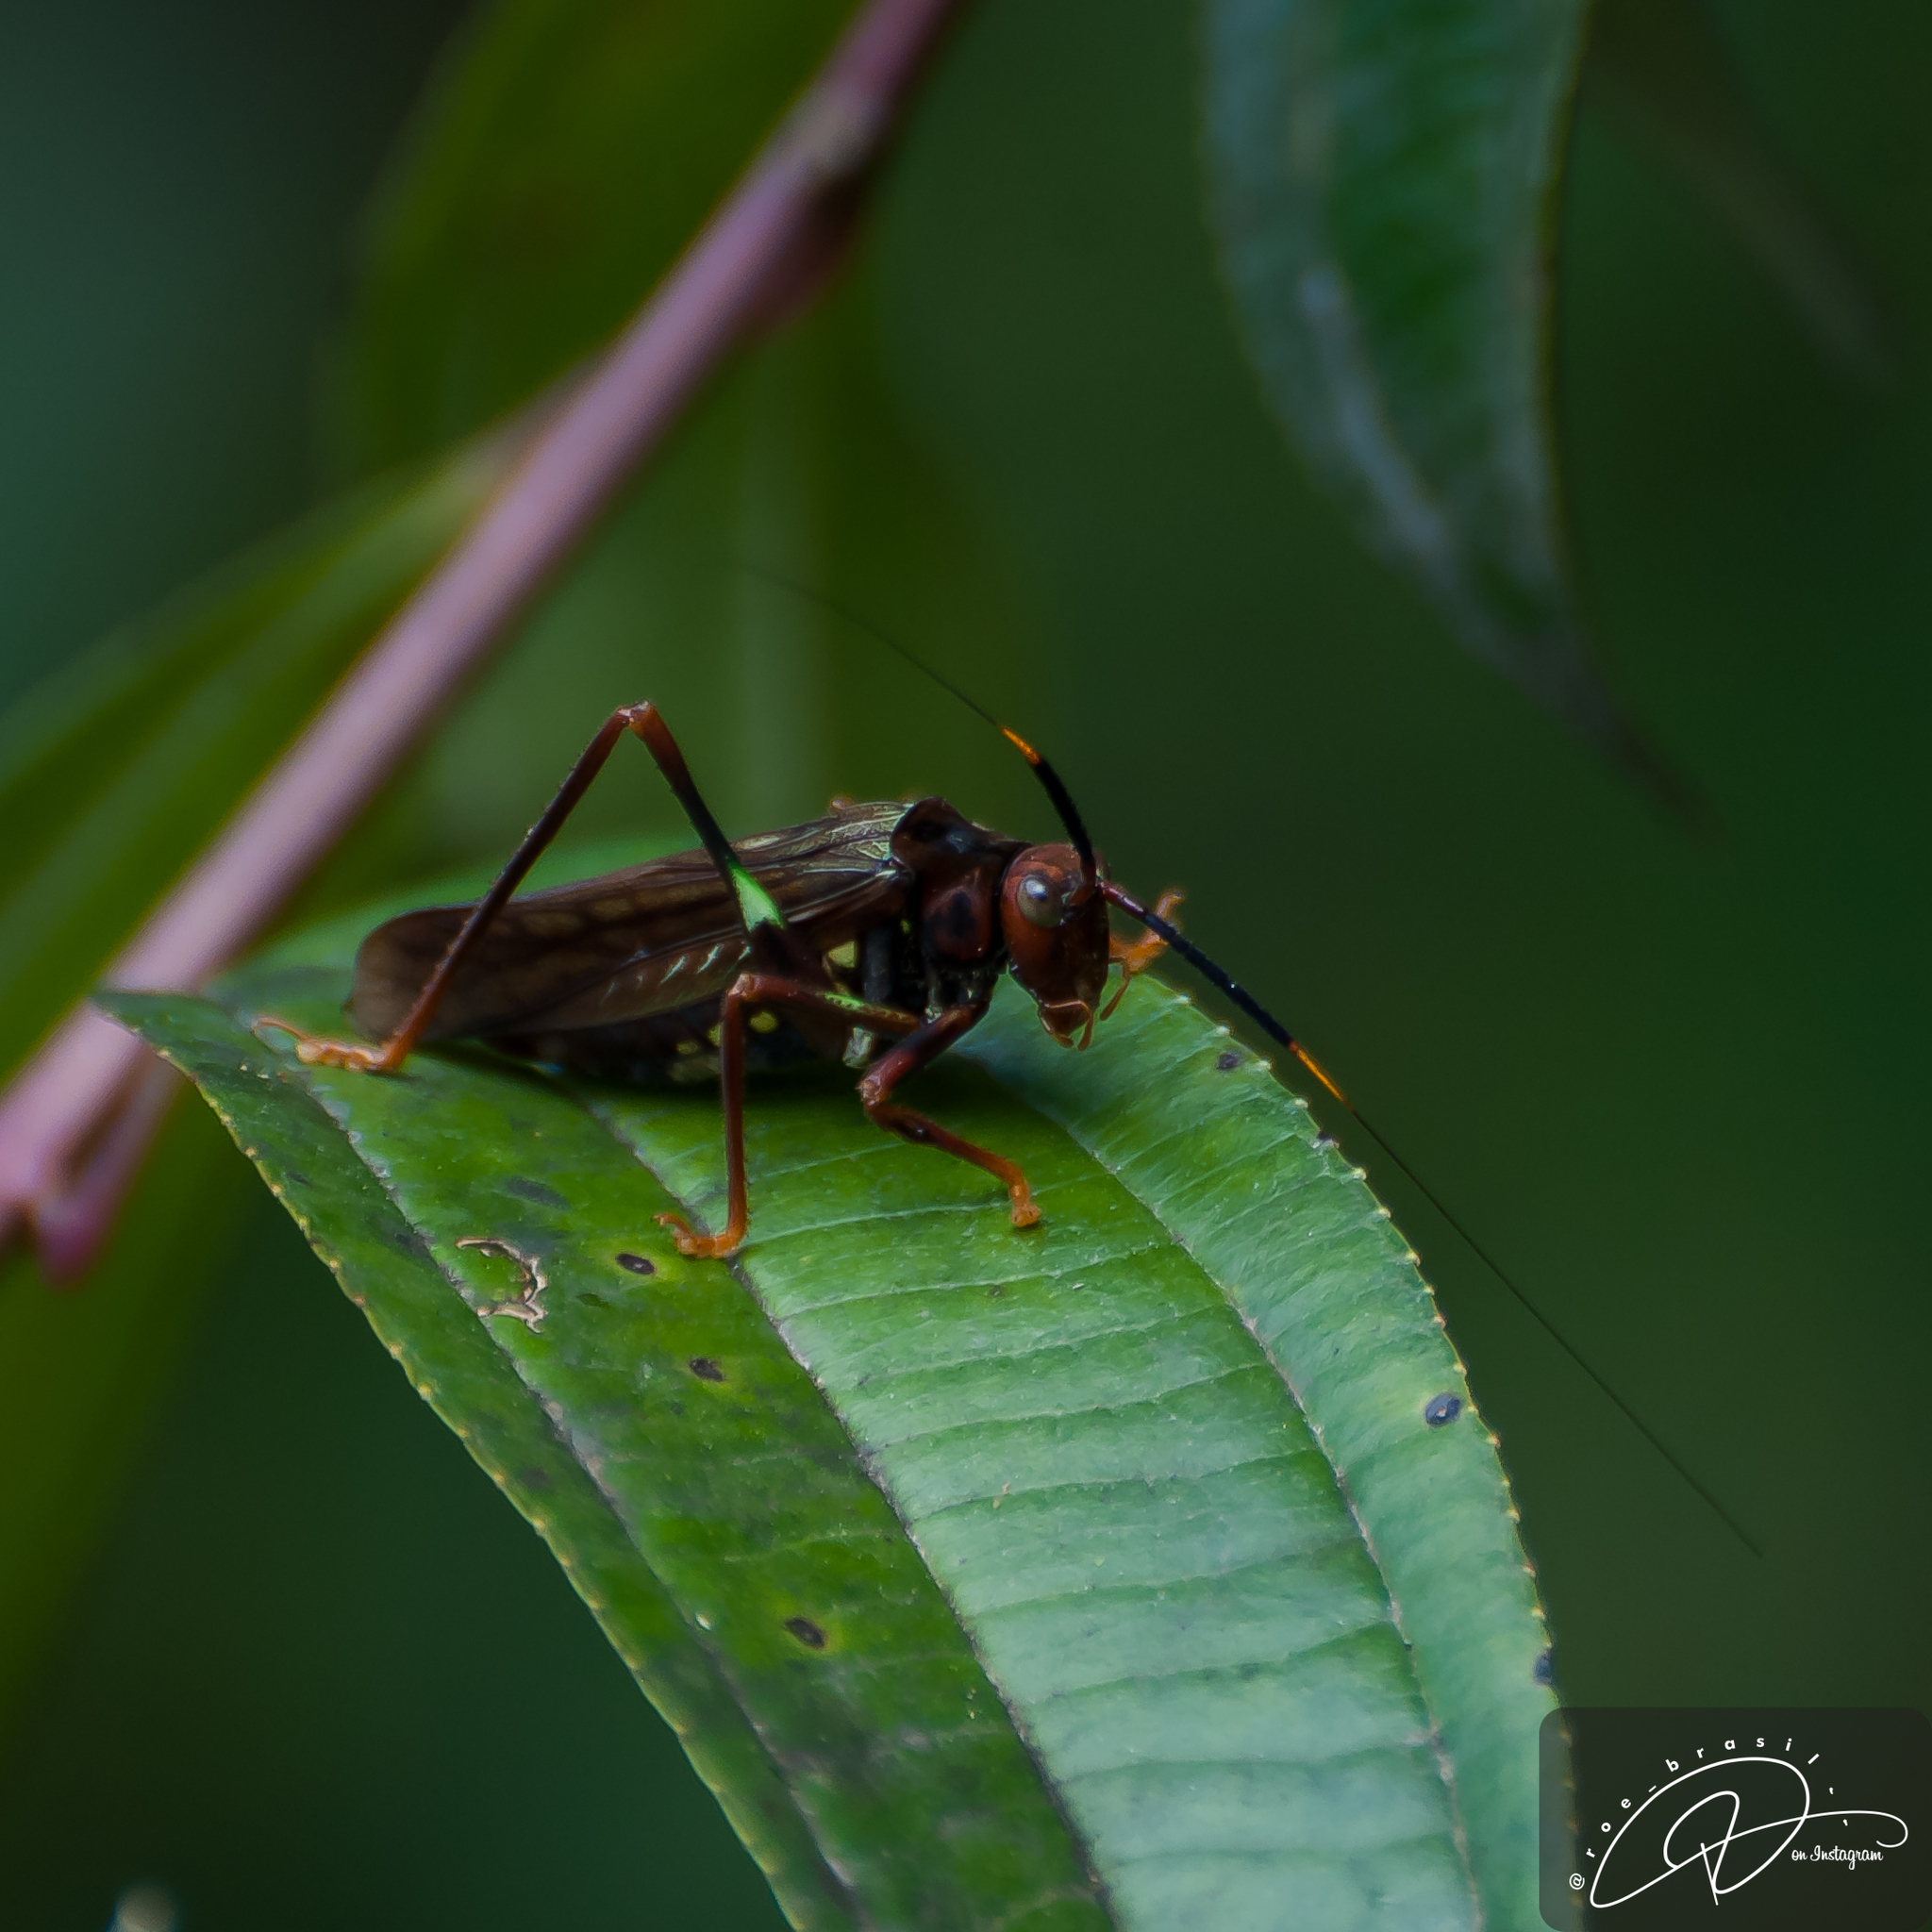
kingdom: Animalia
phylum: Arthropoda
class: Insecta
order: Orthoptera
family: Tettigoniidae
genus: Scaphura
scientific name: Scaphura nigra
